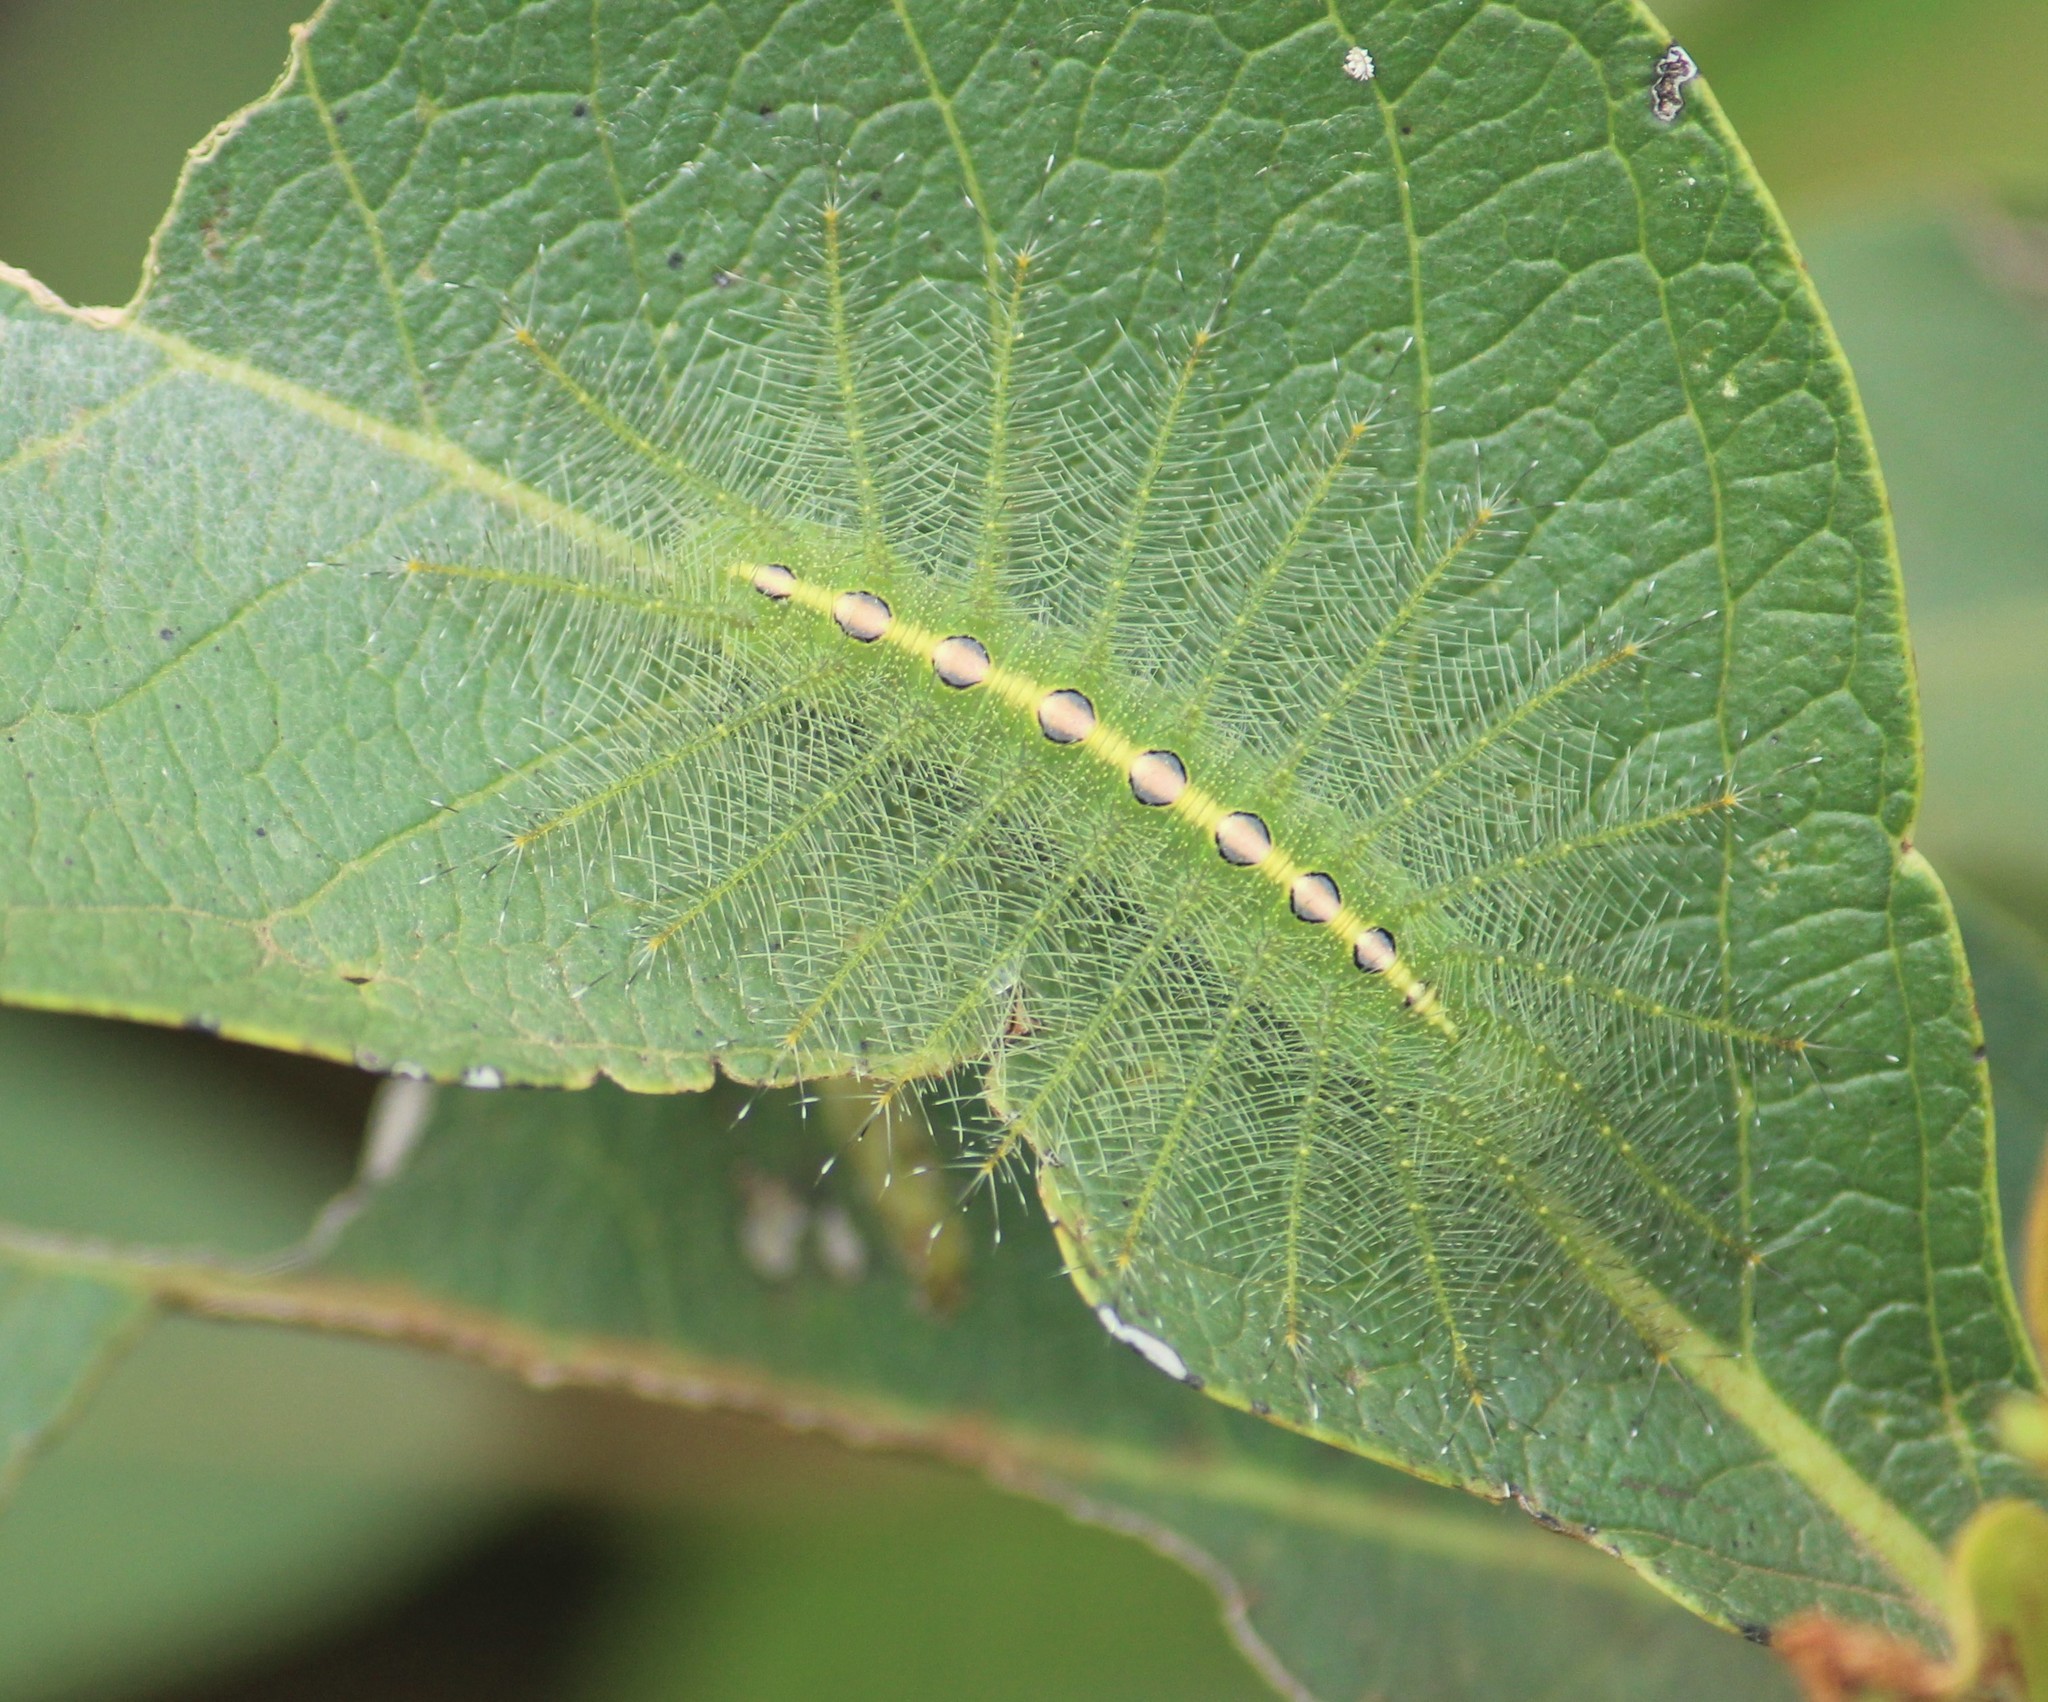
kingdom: Animalia
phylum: Arthropoda
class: Insecta
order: Lepidoptera
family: Nymphalidae
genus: Euthalia
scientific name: Euthalia nais
